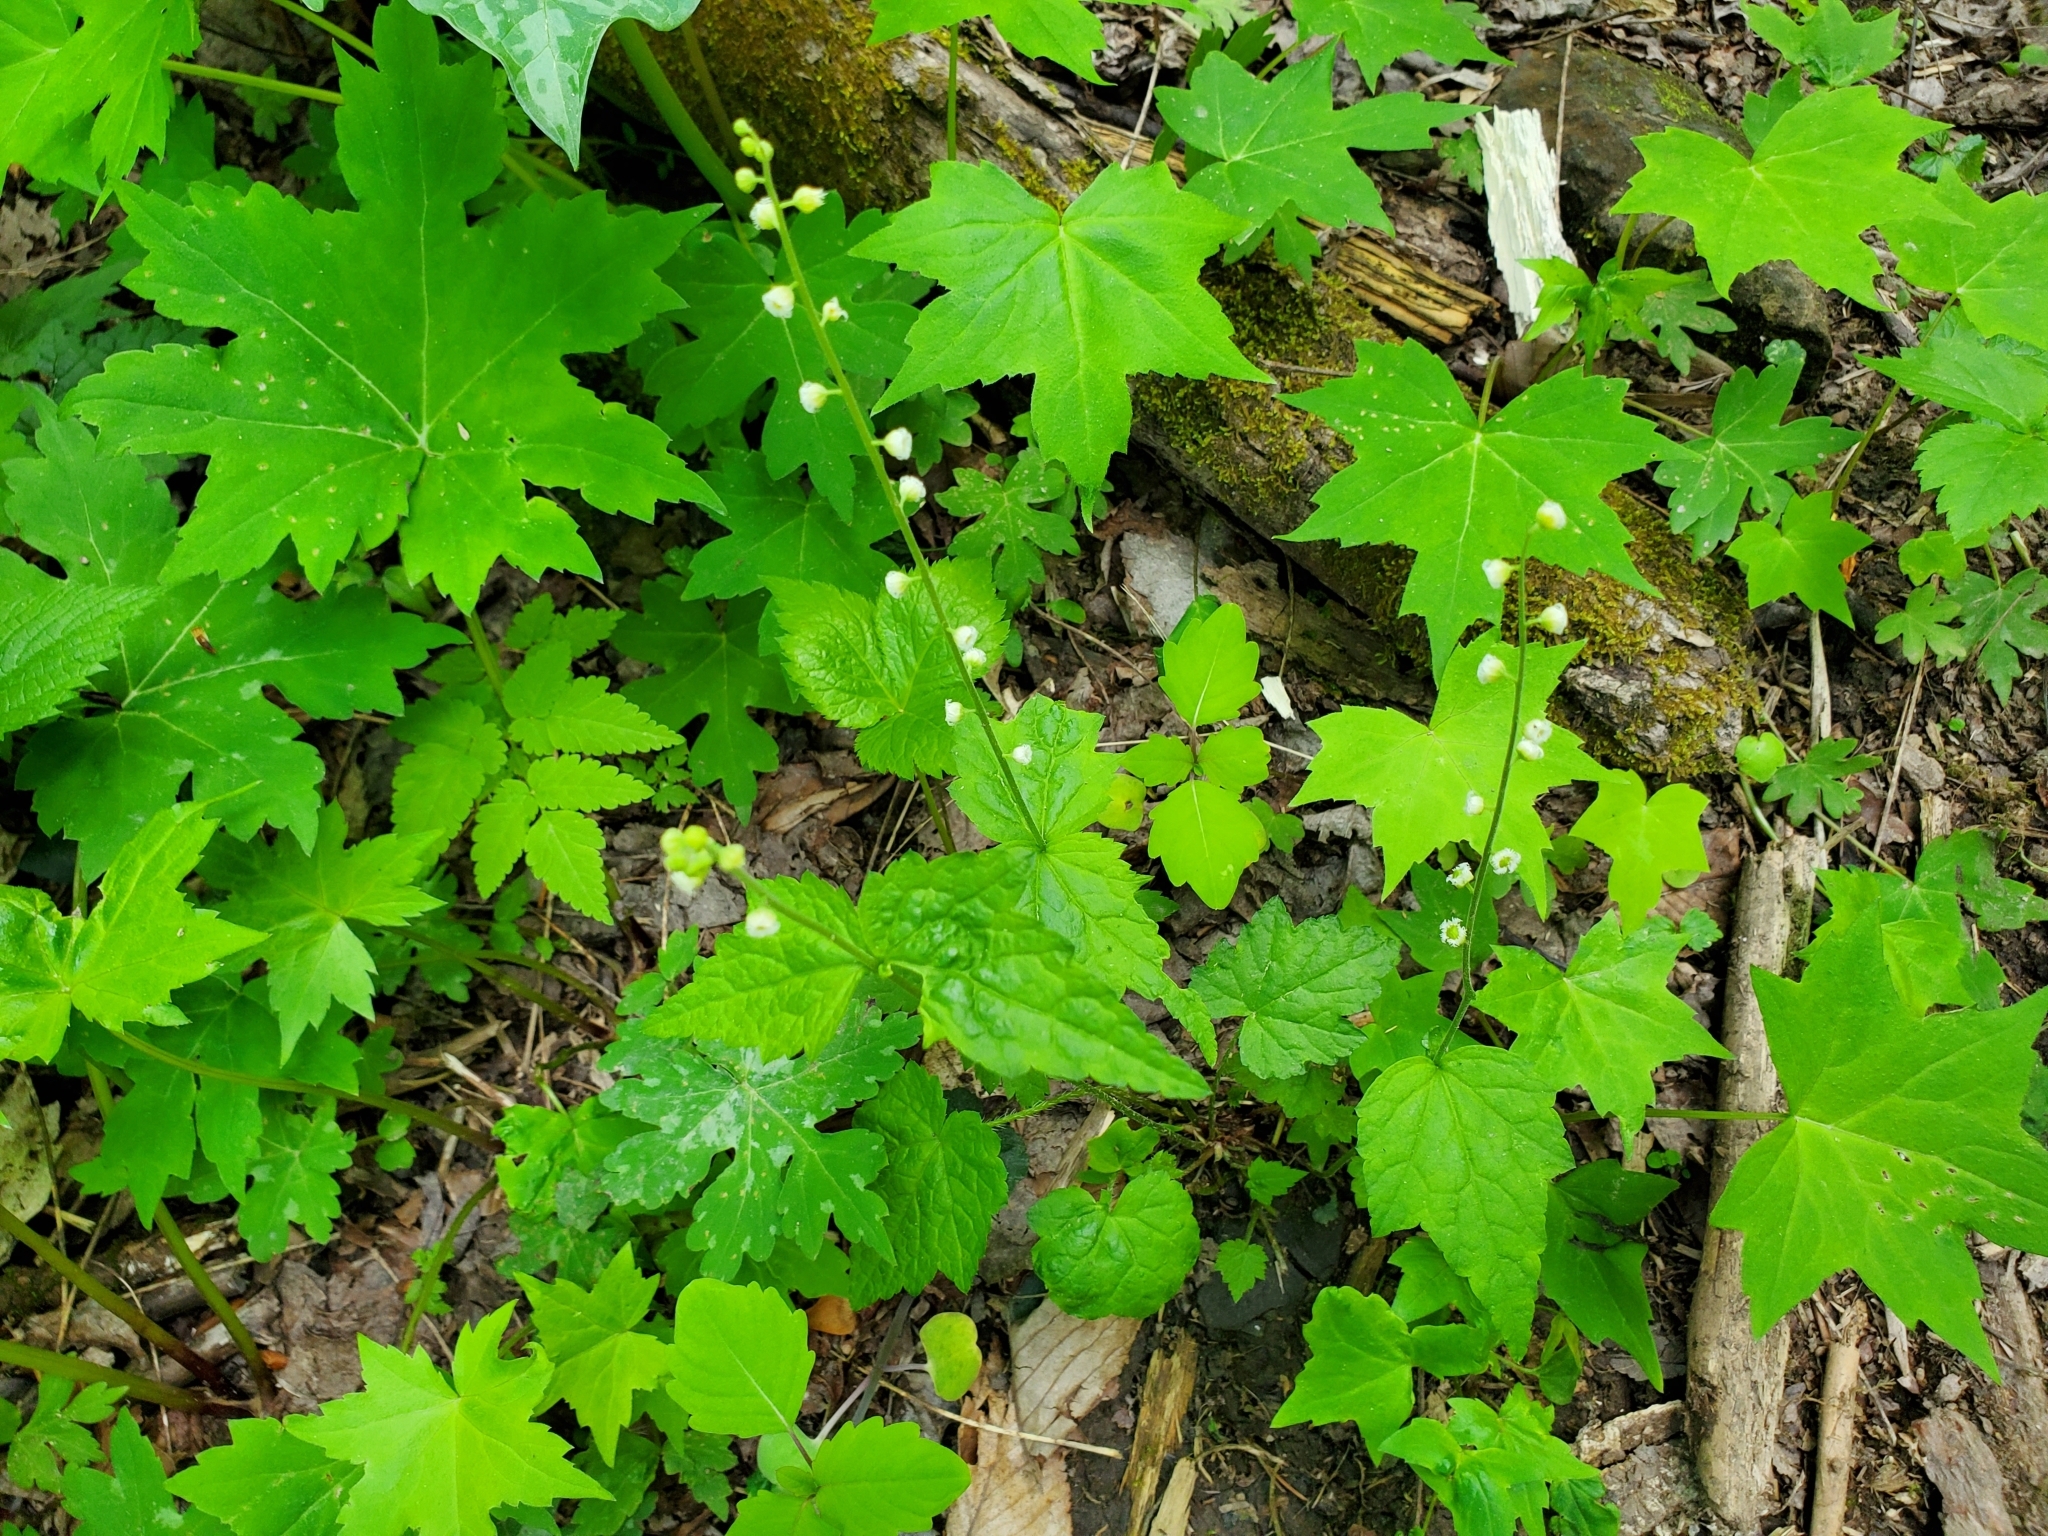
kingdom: Plantae
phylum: Tracheophyta
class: Magnoliopsida
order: Saxifragales
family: Saxifragaceae
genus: Mitella
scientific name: Mitella diphylla
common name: Coolwort
